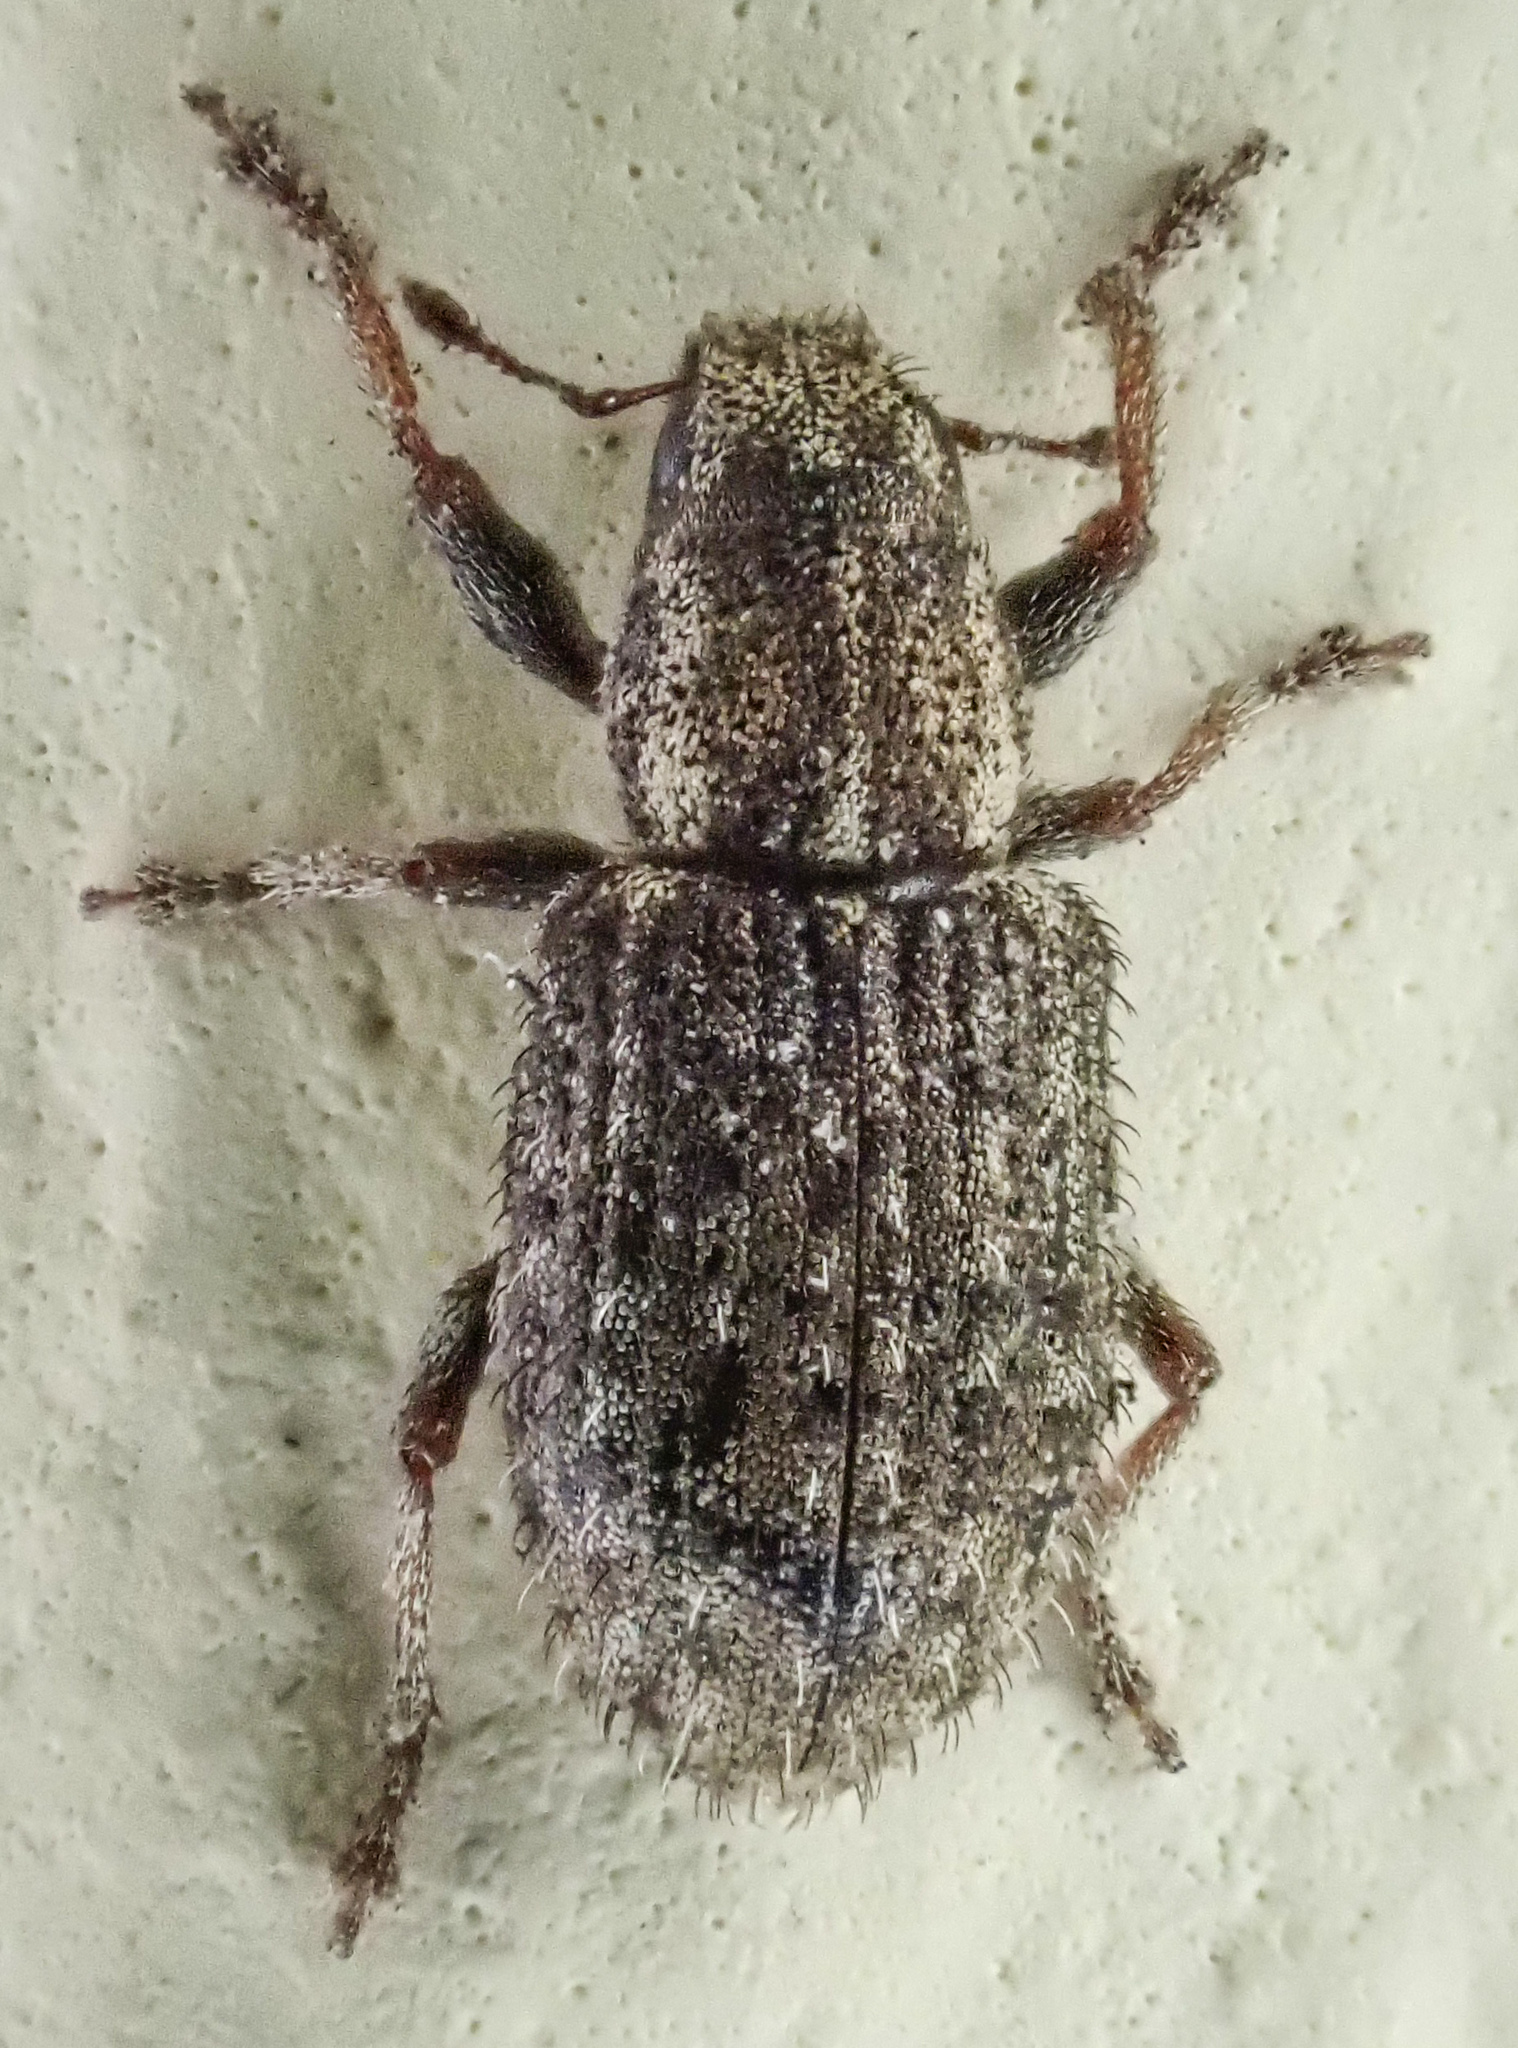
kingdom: Animalia
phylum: Arthropoda
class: Insecta
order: Coleoptera
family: Curculionidae
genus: Sitona
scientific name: Sitona hispidulus
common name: Clover weevil
